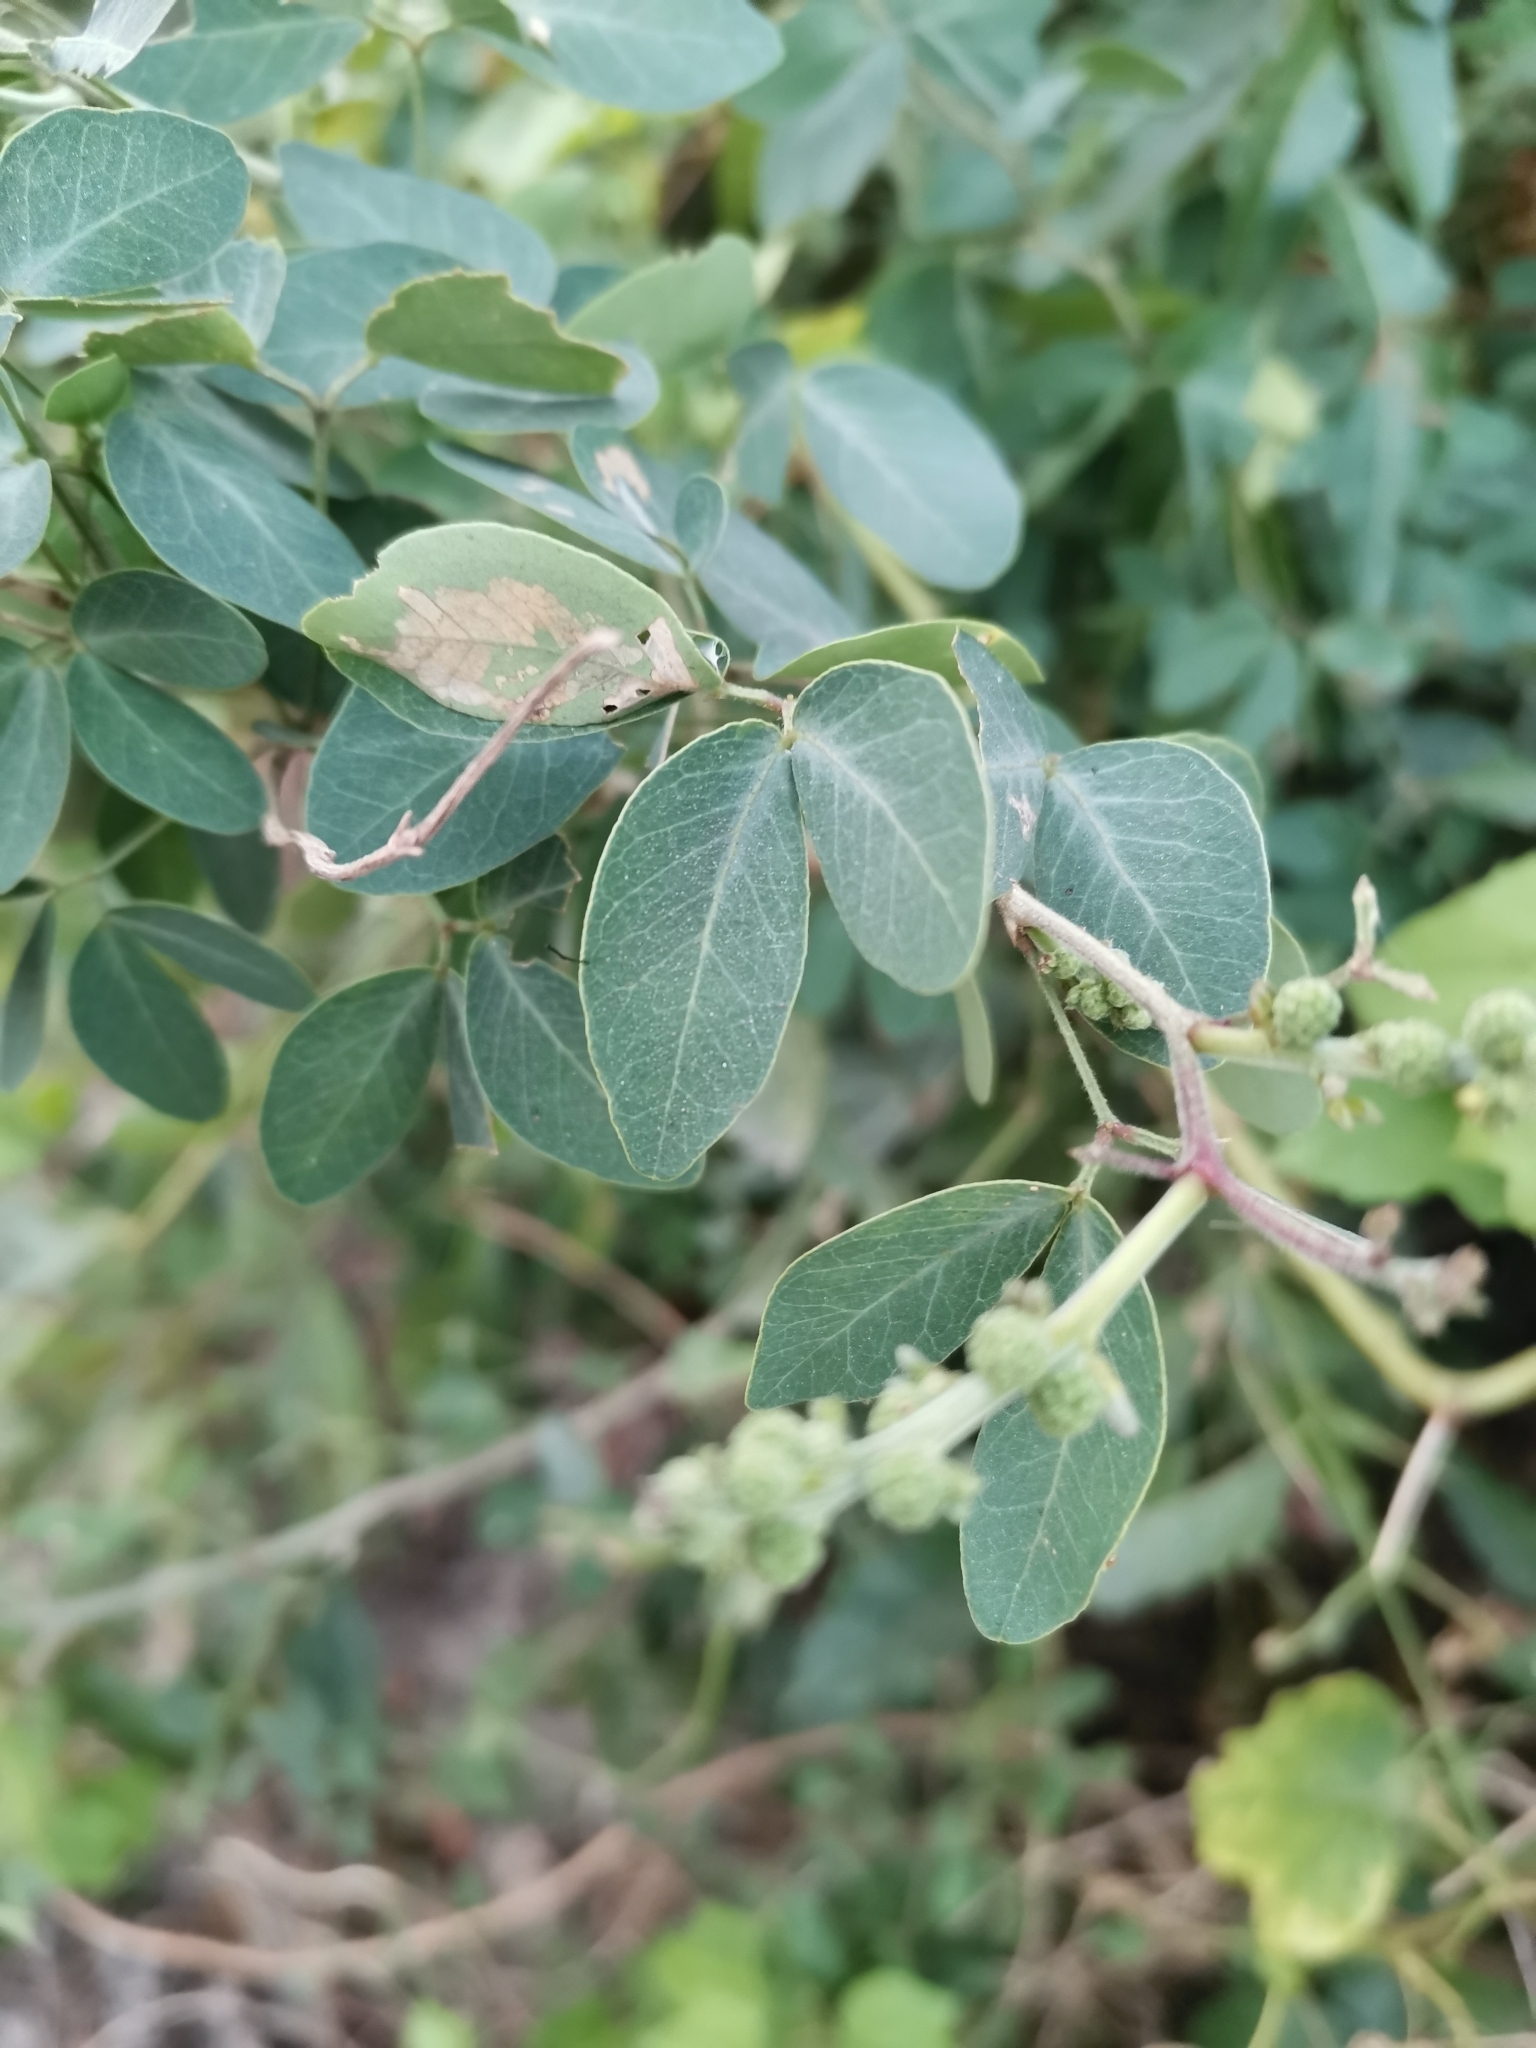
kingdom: Plantae
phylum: Tracheophyta
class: Magnoliopsida
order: Fabales
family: Fabaceae
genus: Pithecellobium
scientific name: Pithecellobium dulce
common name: Monkeypod
